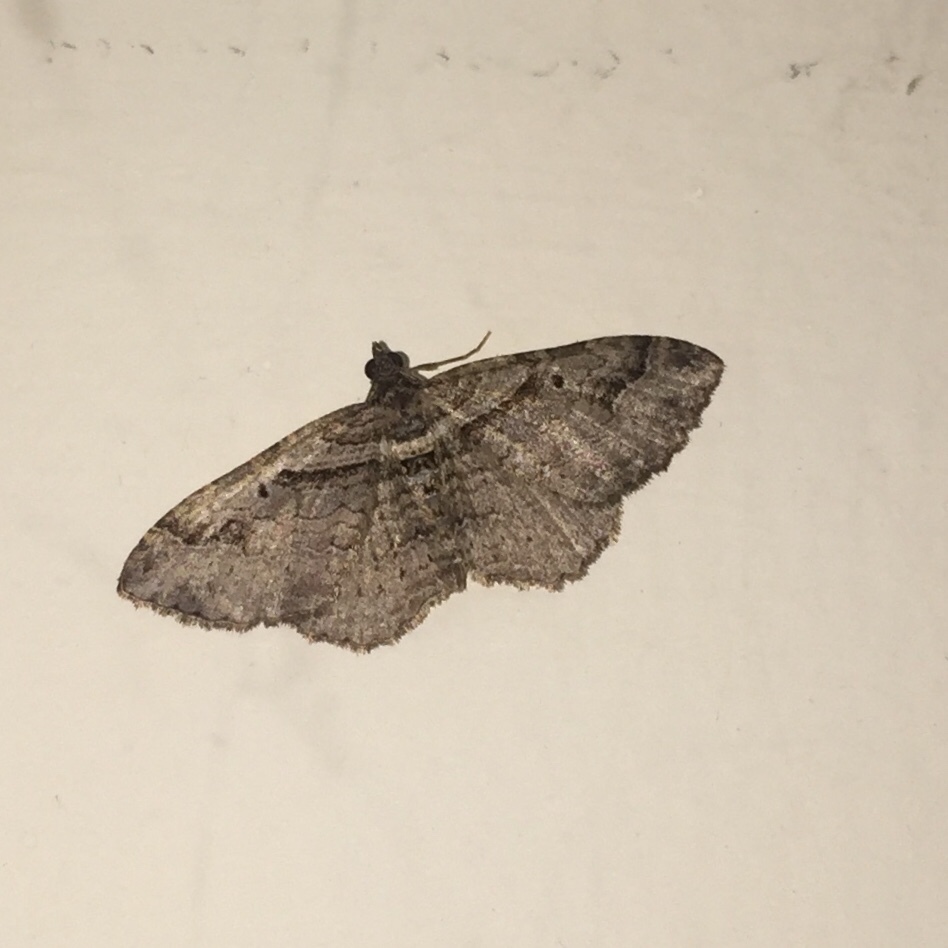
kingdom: Animalia
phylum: Arthropoda
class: Insecta
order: Lepidoptera
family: Geometridae
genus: Costaconvexa
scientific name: Costaconvexa centrostrigaria
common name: Bent-line carpet
